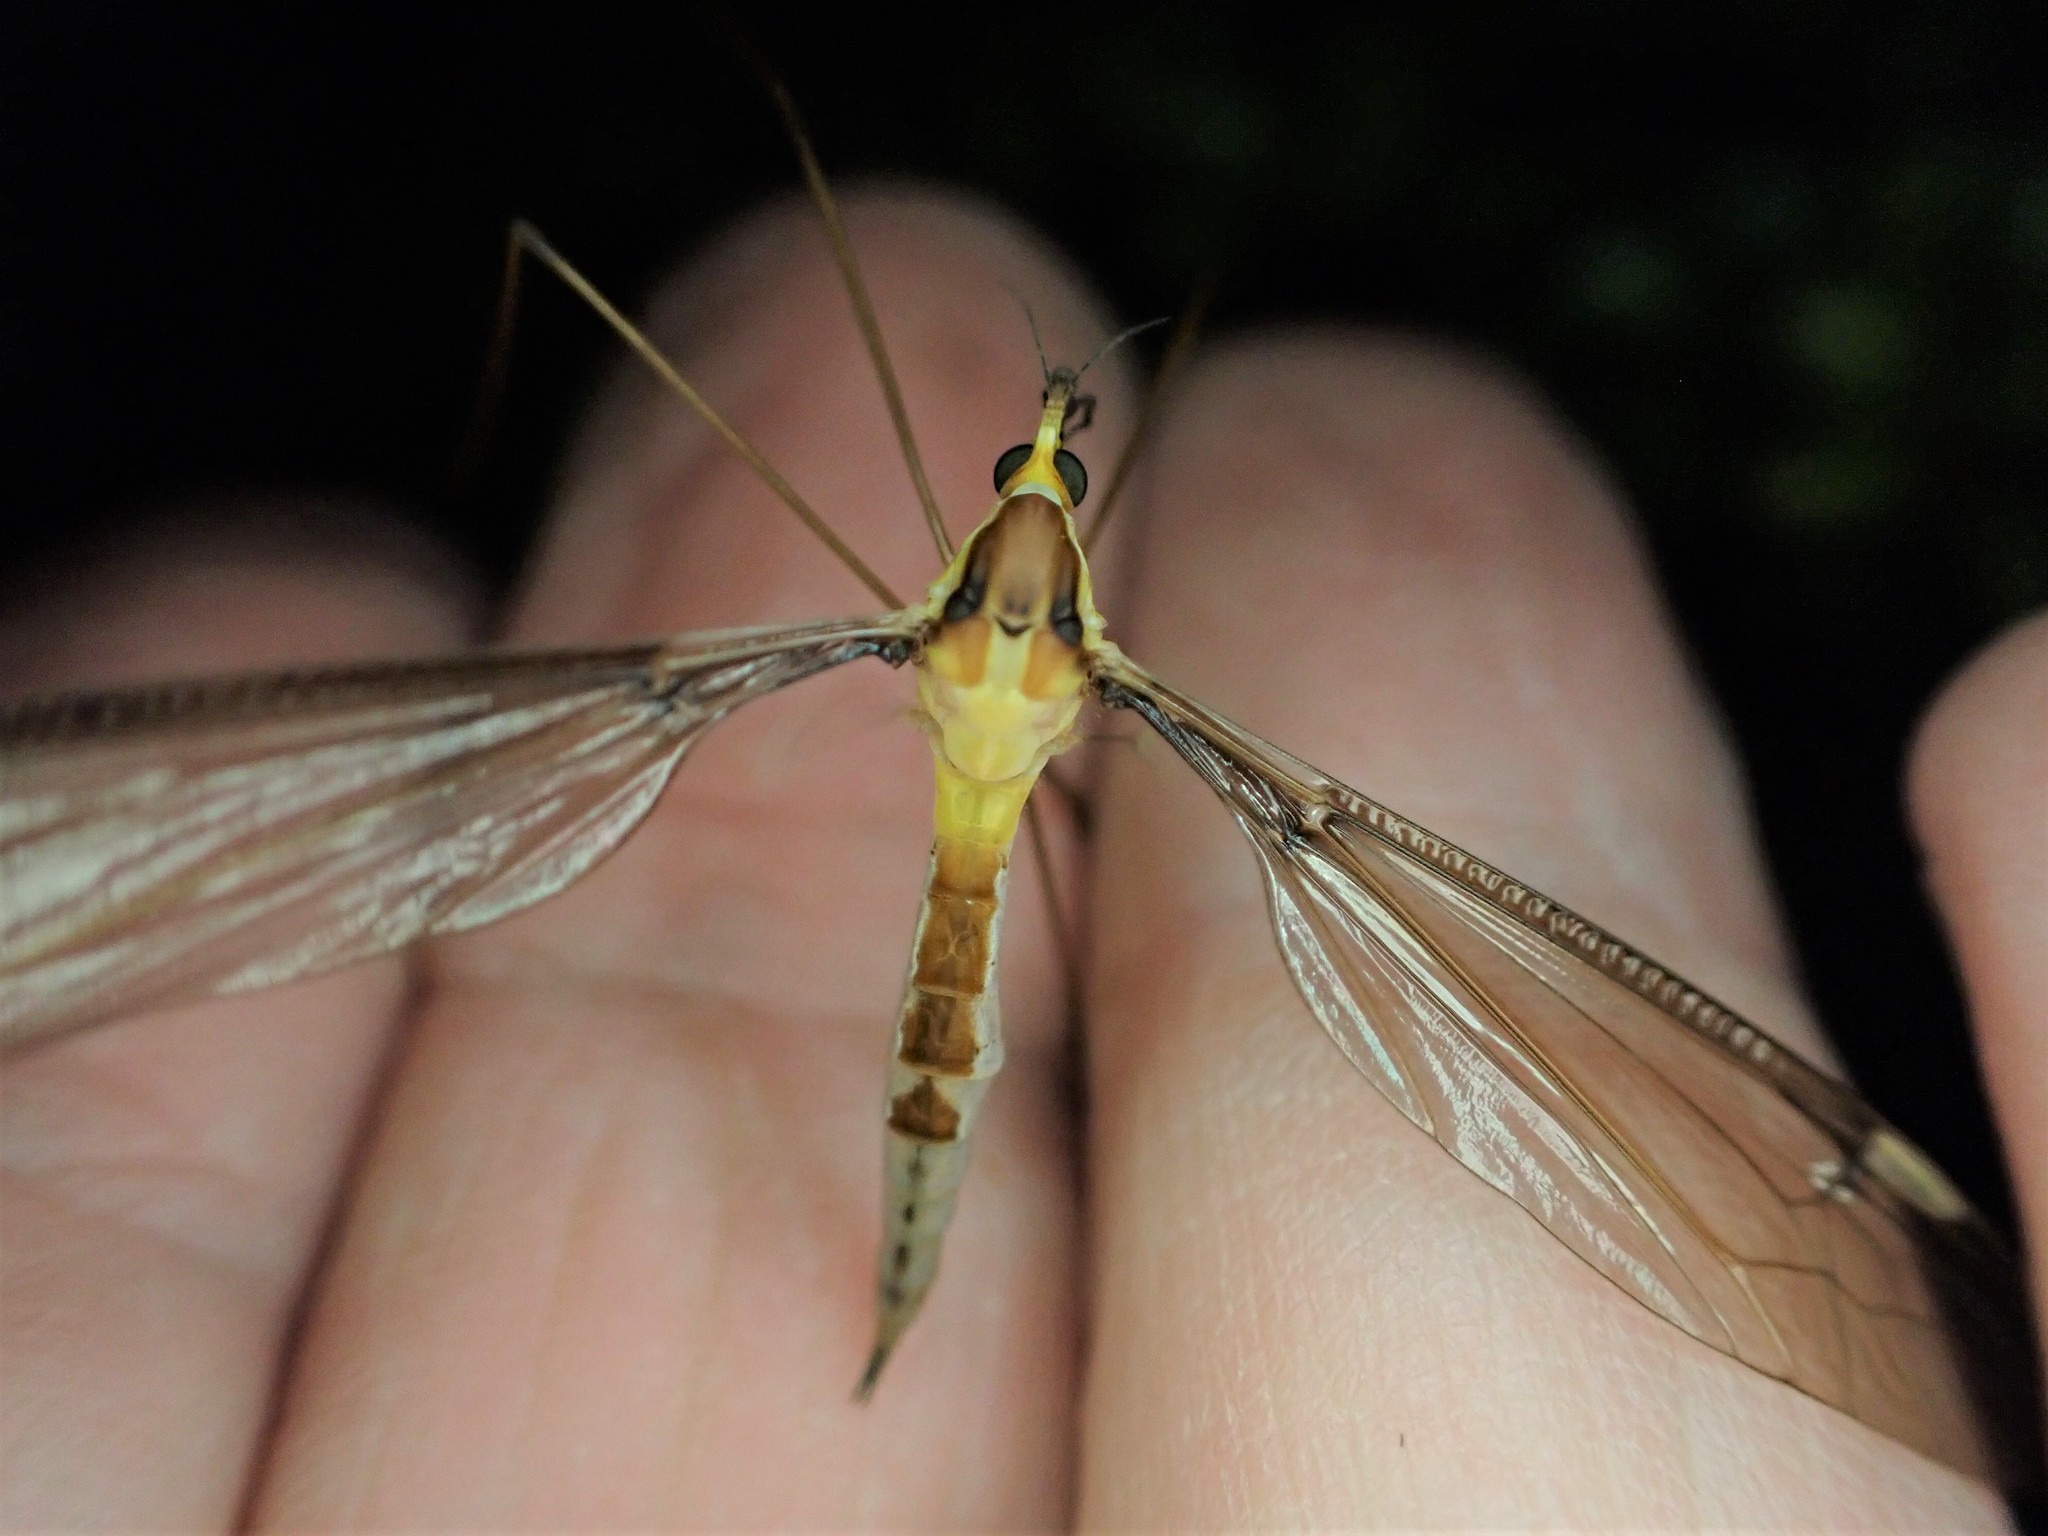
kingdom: Animalia
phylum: Arthropoda
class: Insecta
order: Diptera
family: Tipulidae
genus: Leptotarsus
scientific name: Leptotarsus albistigma
